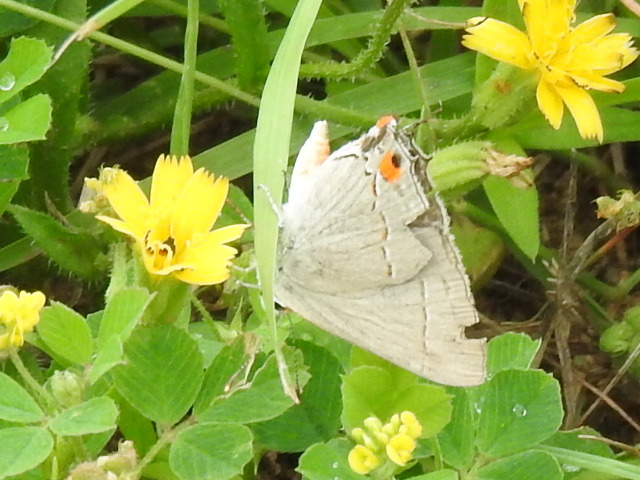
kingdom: Animalia
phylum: Arthropoda
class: Insecta
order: Lepidoptera
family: Lycaenidae
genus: Strymon
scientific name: Strymon melinus
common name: Gray hairstreak
